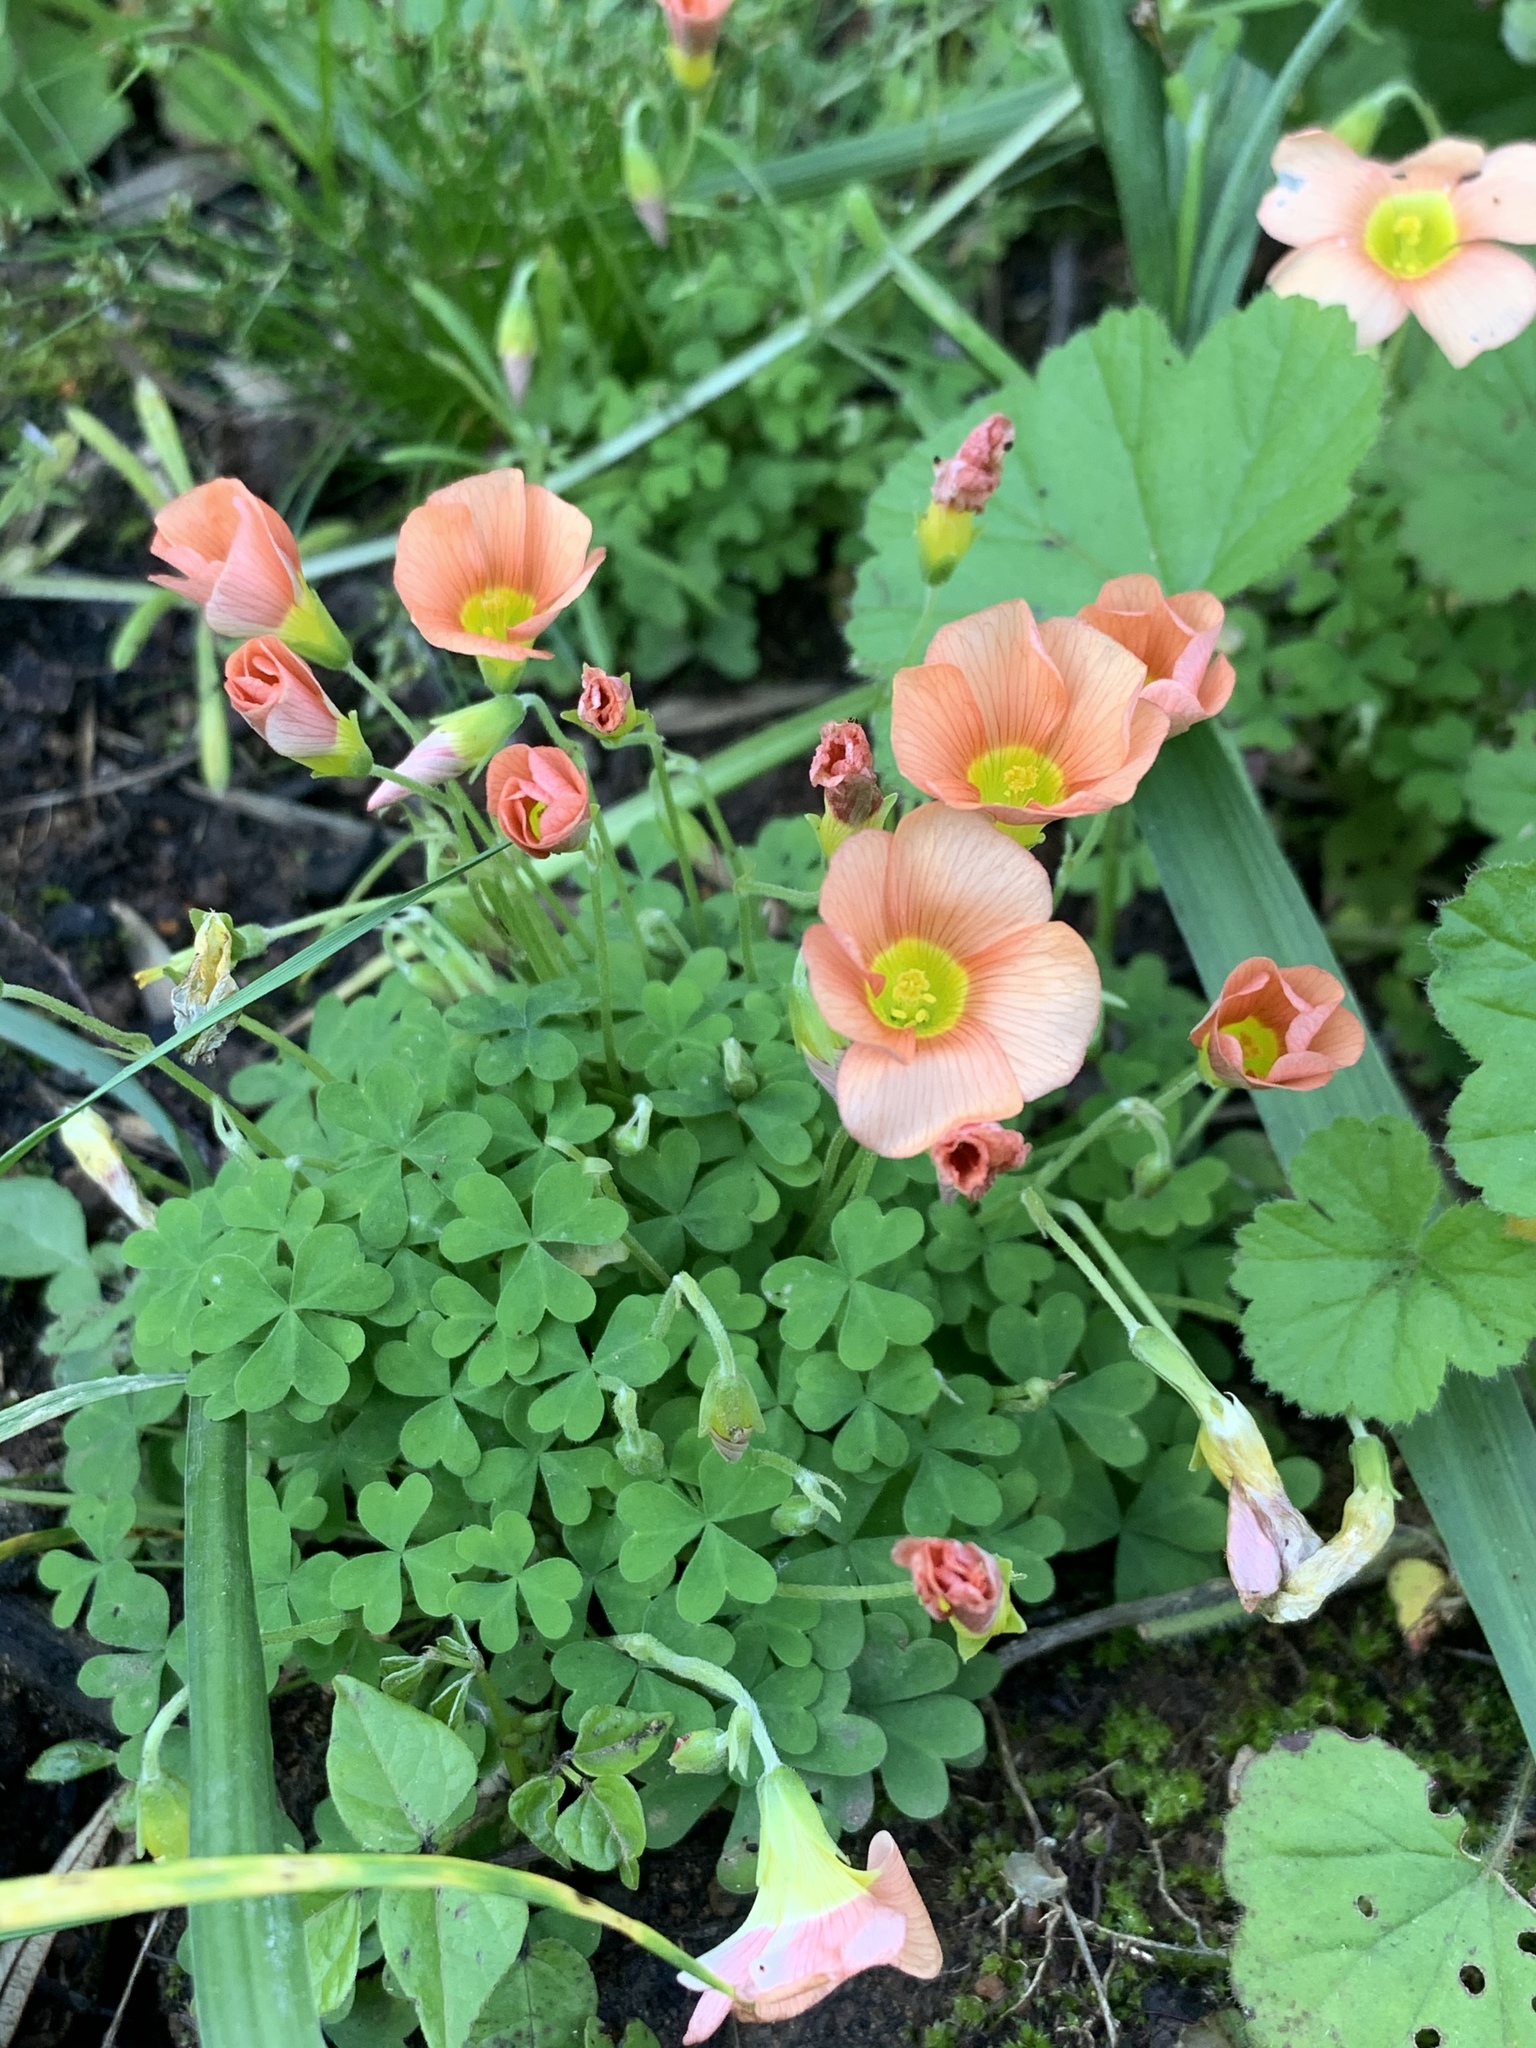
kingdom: Plantae
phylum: Tracheophyta
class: Magnoliopsida
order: Oxalidales
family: Oxalidaceae
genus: Oxalis
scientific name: Oxalis obtusa
